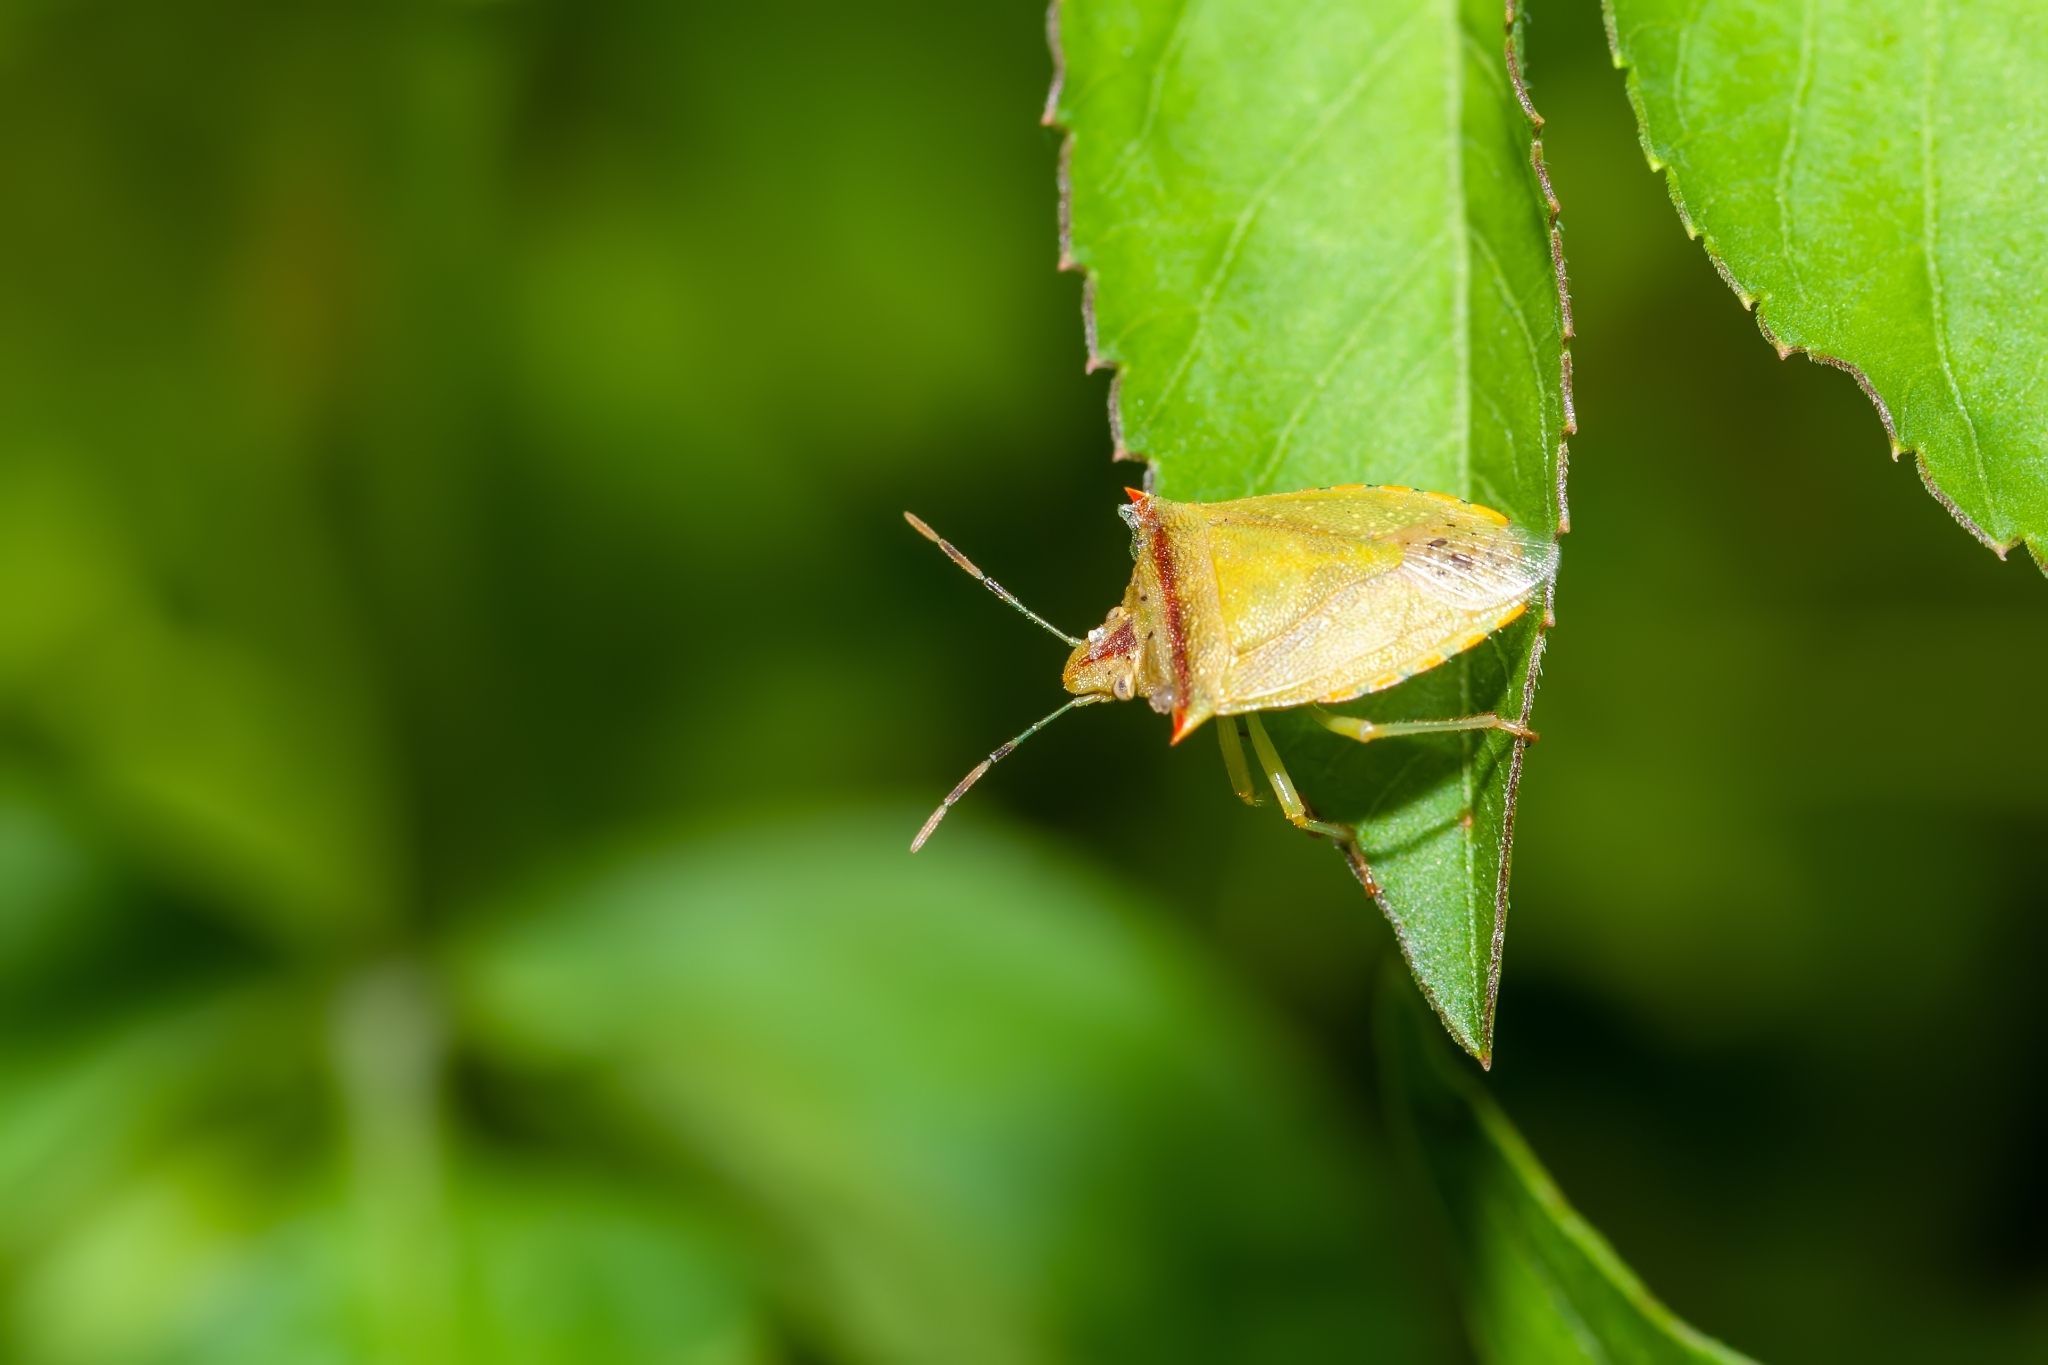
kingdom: Animalia
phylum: Arthropoda
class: Insecta
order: Hemiptera
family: Pentatomidae
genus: Thyanta
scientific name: Thyanta perditor
